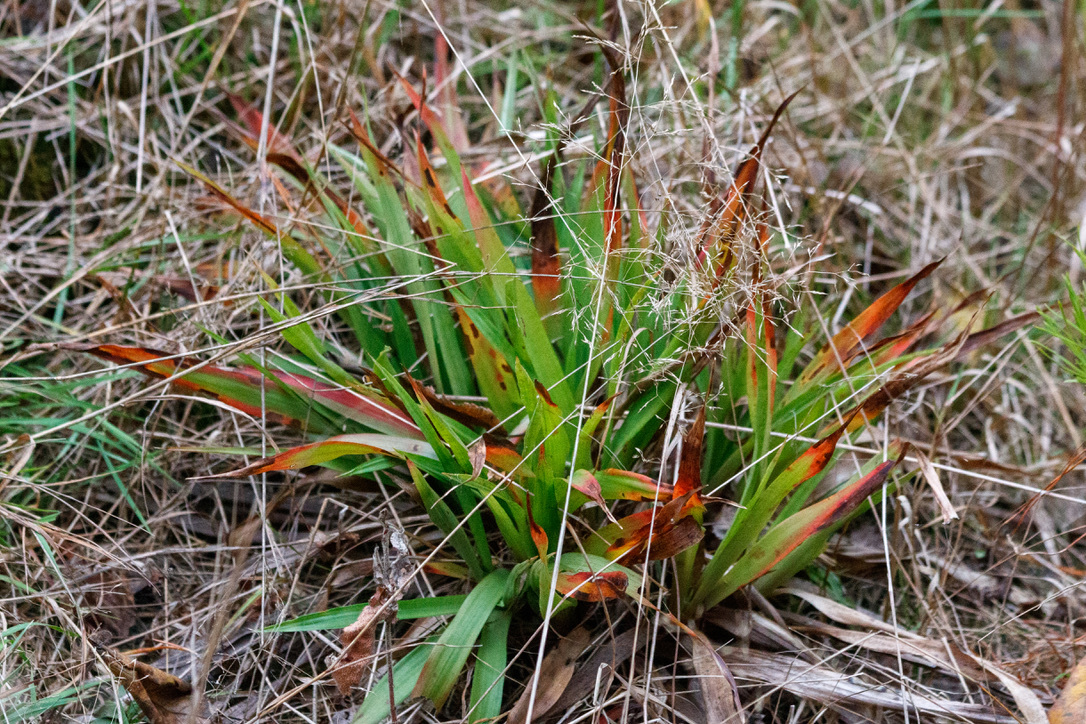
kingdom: Plantae
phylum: Tracheophyta
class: Liliopsida
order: Poales
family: Juncaceae
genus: Luzula
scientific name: Luzula pilosa
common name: Hairy wood-rush
